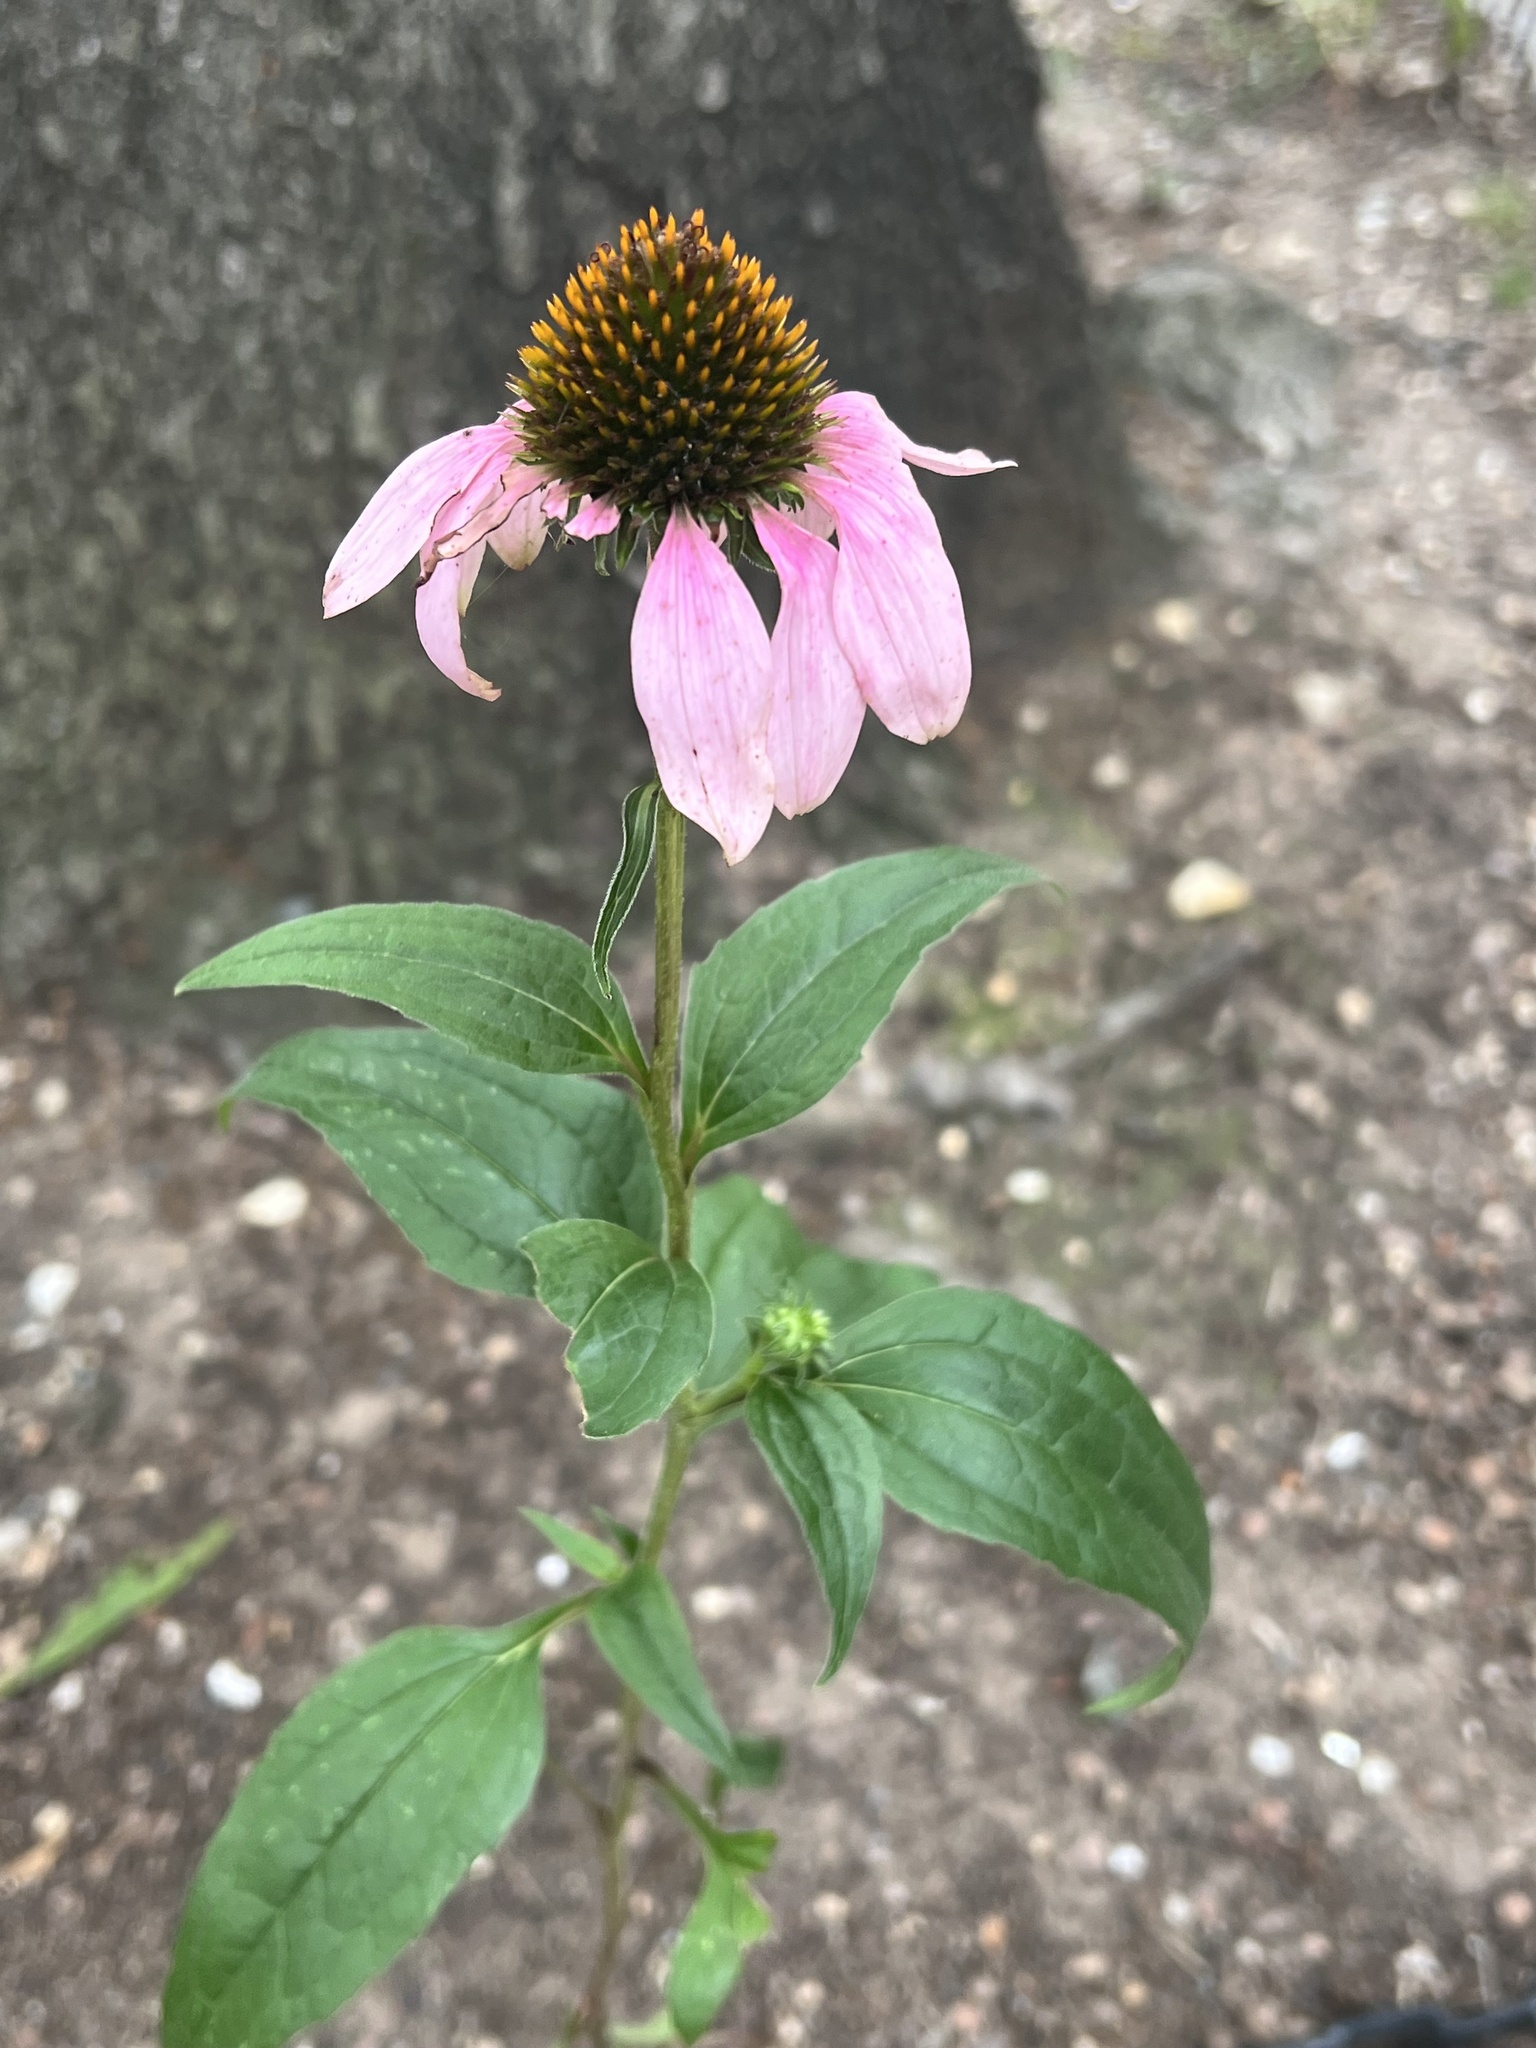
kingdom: Plantae
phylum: Tracheophyta
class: Magnoliopsida
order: Asterales
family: Asteraceae
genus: Echinacea
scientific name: Echinacea purpurea
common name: Broad-leaved purple coneflower
